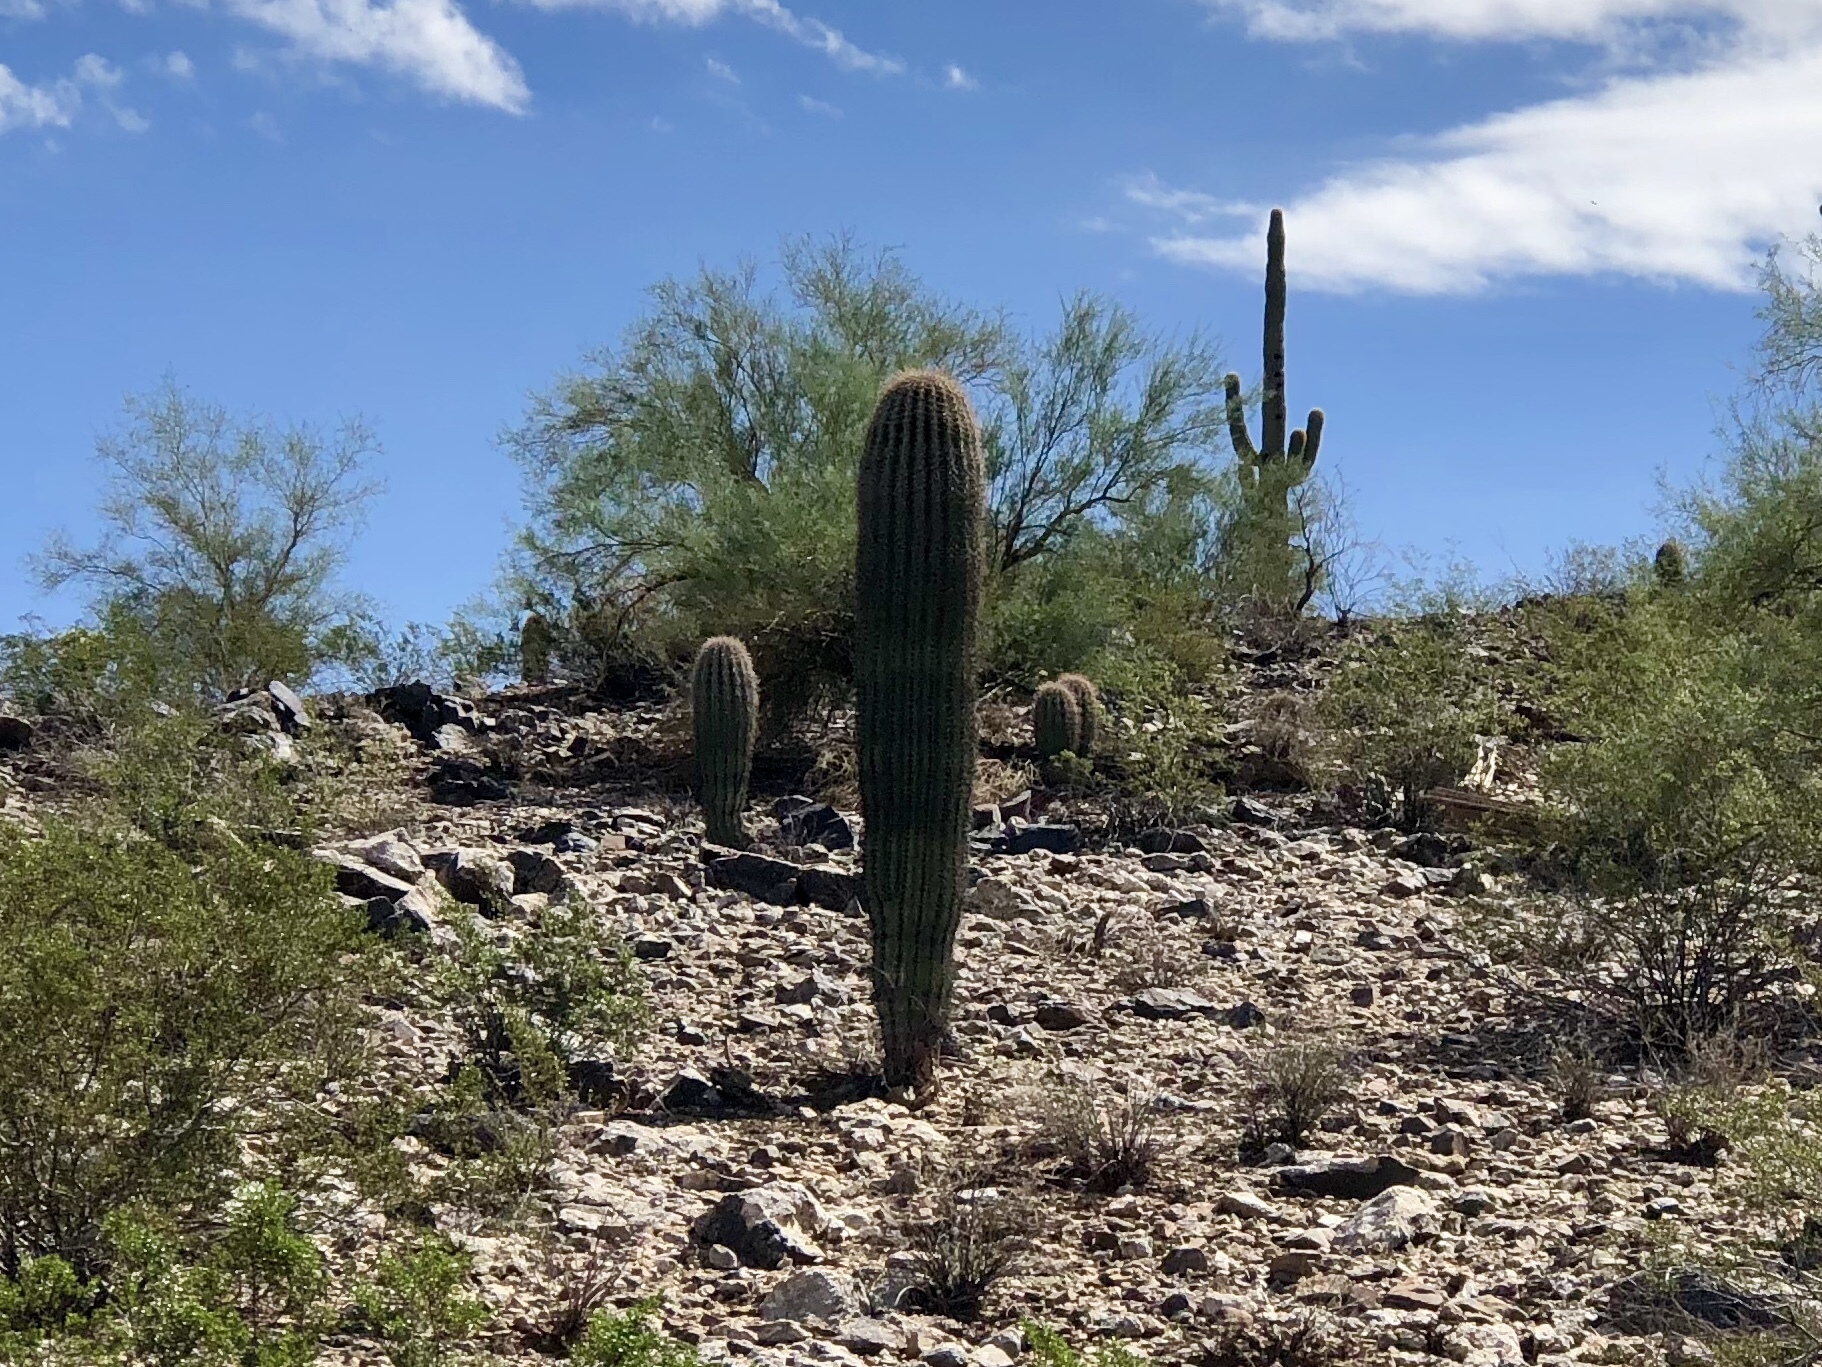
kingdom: Plantae
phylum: Tracheophyta
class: Magnoliopsida
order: Caryophyllales
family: Cactaceae
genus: Carnegiea
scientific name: Carnegiea gigantea
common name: Saguaro
